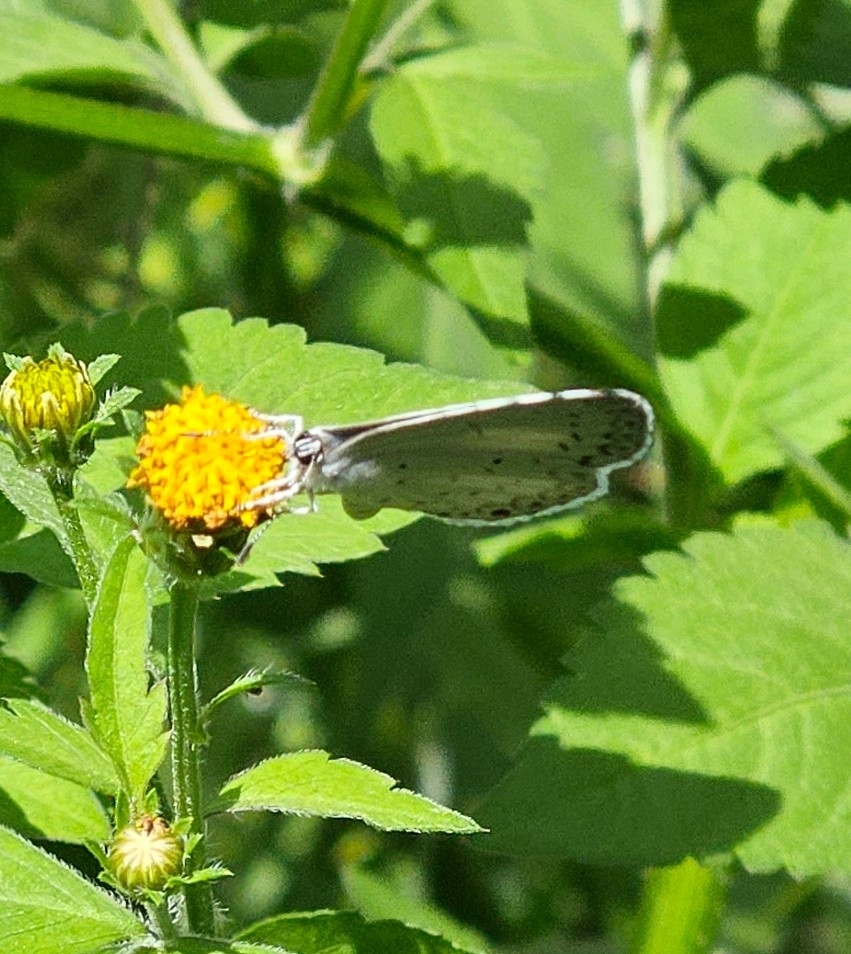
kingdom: Animalia
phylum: Arthropoda
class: Insecta
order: Lepidoptera
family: Lycaenidae
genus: Cyaniris
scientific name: Cyaniris neglecta
